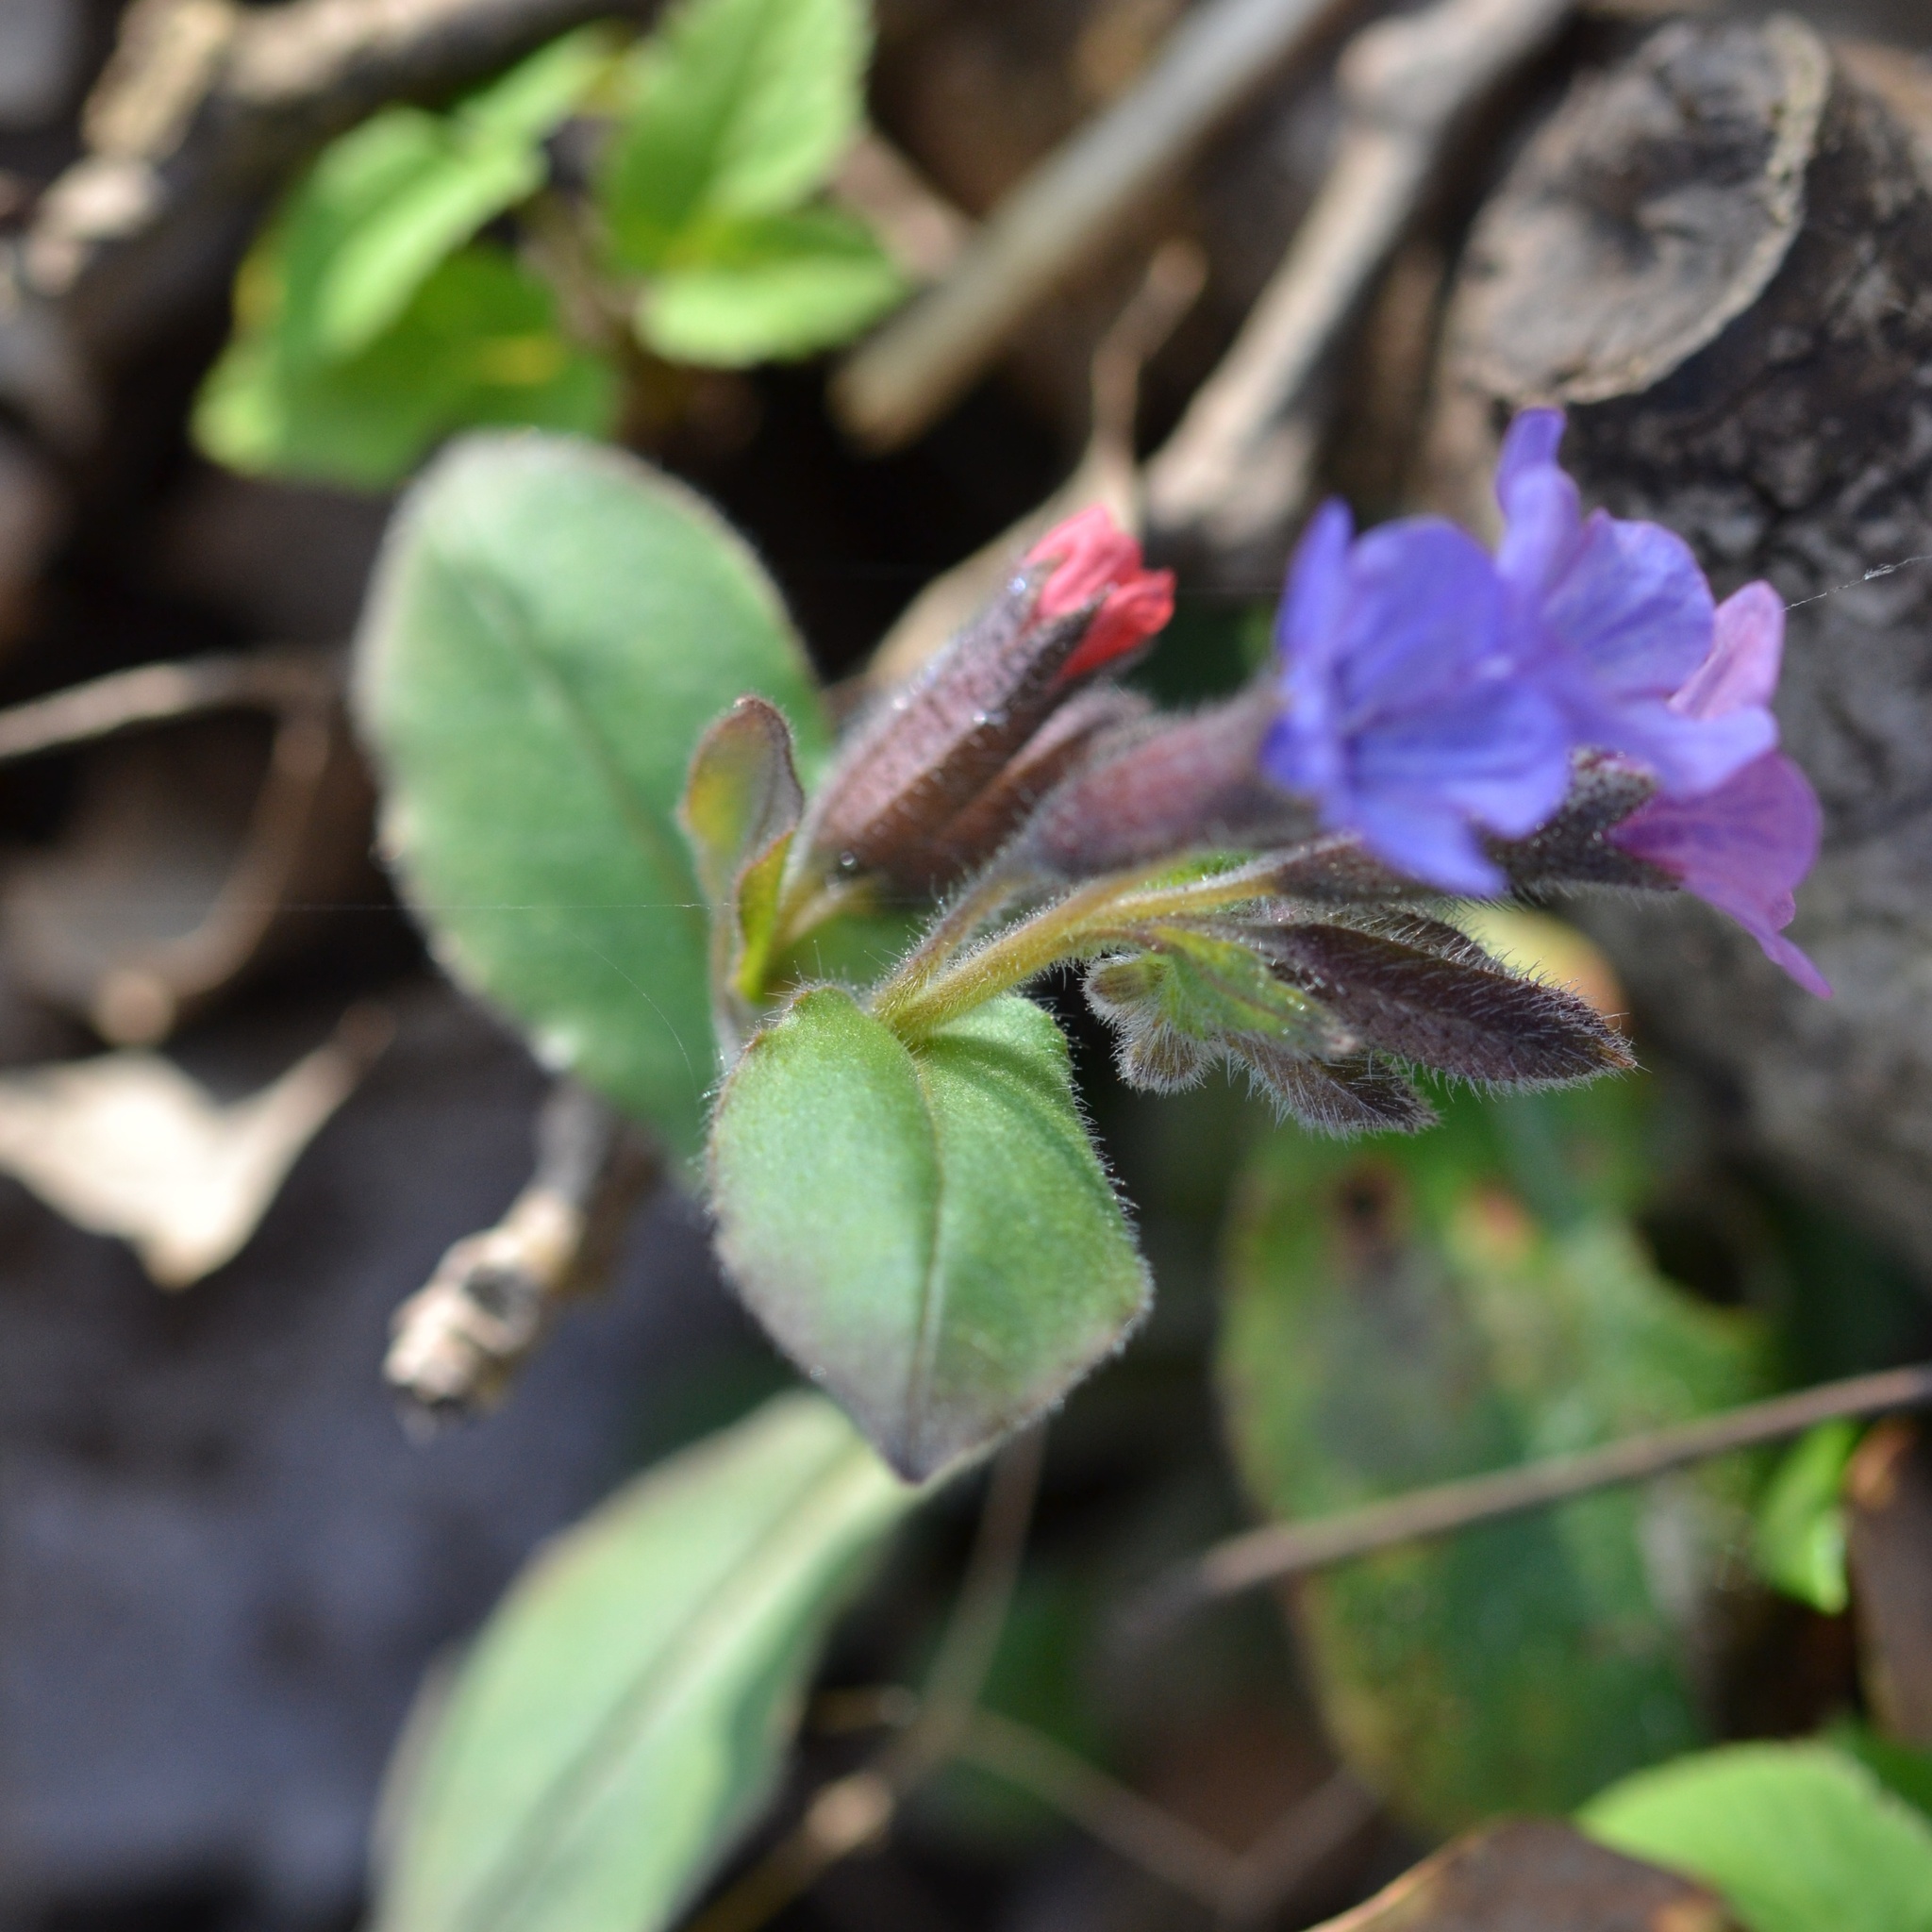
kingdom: Plantae
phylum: Tracheophyta
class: Magnoliopsida
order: Boraginales
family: Boraginaceae
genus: Pulmonaria
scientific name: Pulmonaria obscura
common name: Suffolk lungwort
